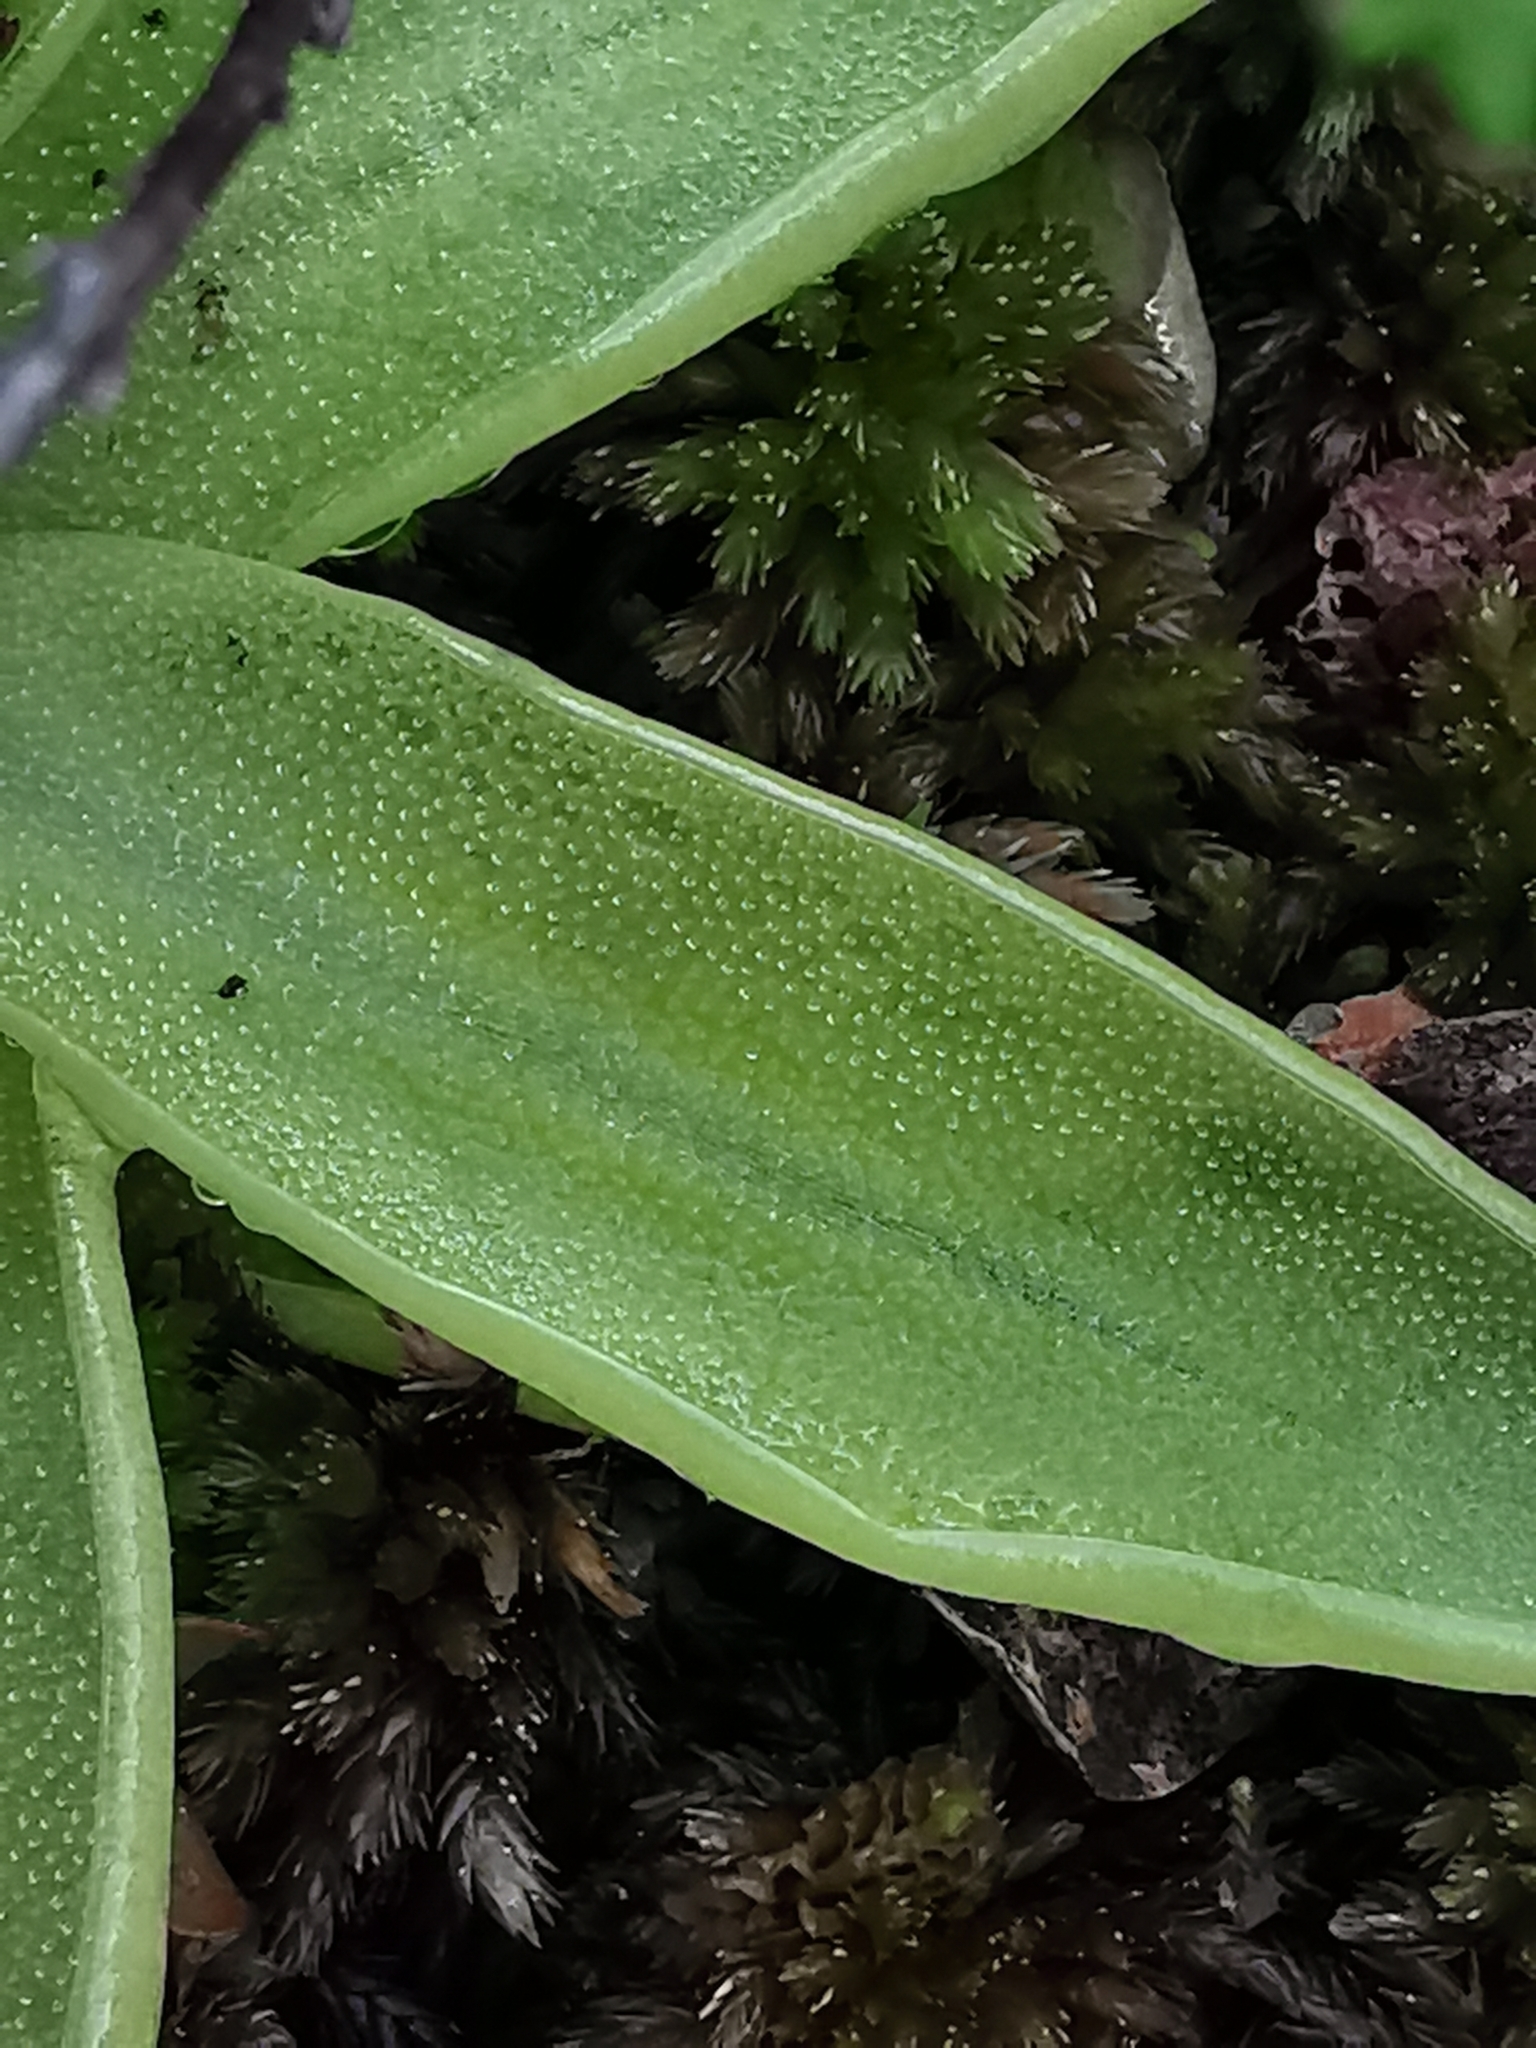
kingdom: Plantae
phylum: Tracheophyta
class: Magnoliopsida
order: Lamiales
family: Lentibulariaceae
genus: Pinguicula
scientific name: Pinguicula vulgaris
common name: Common butterwort
